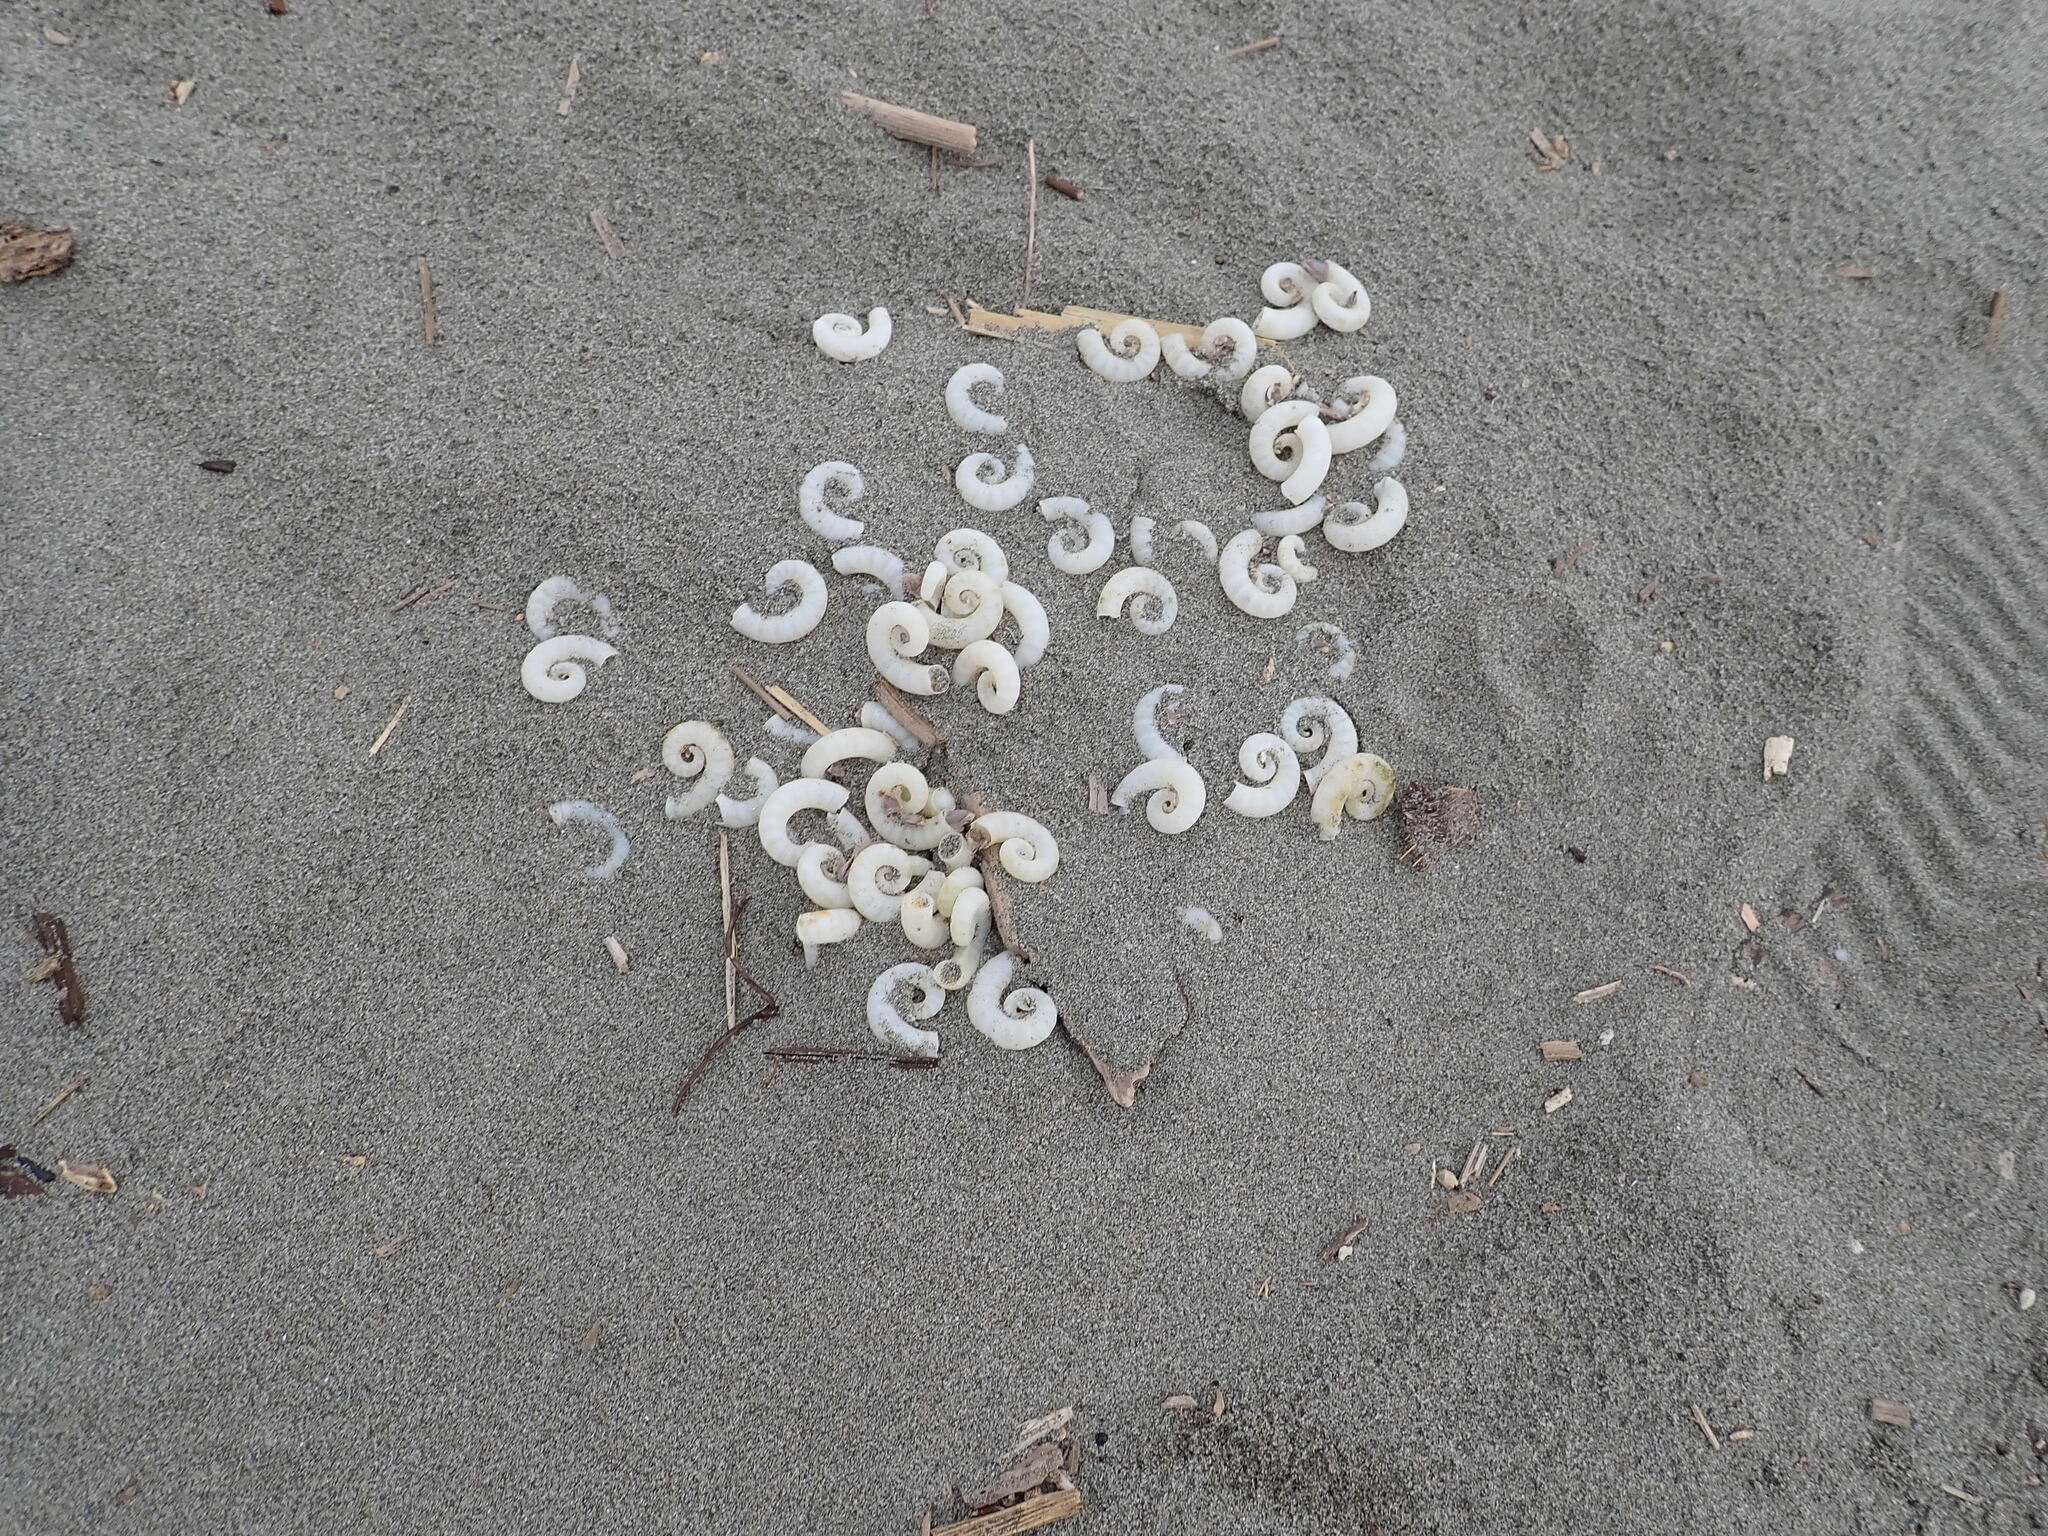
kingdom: Animalia
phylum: Mollusca
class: Cephalopoda
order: Spirulida
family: Spirulidae
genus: Spirula
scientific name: Spirula spirula
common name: Ram's horn squid
